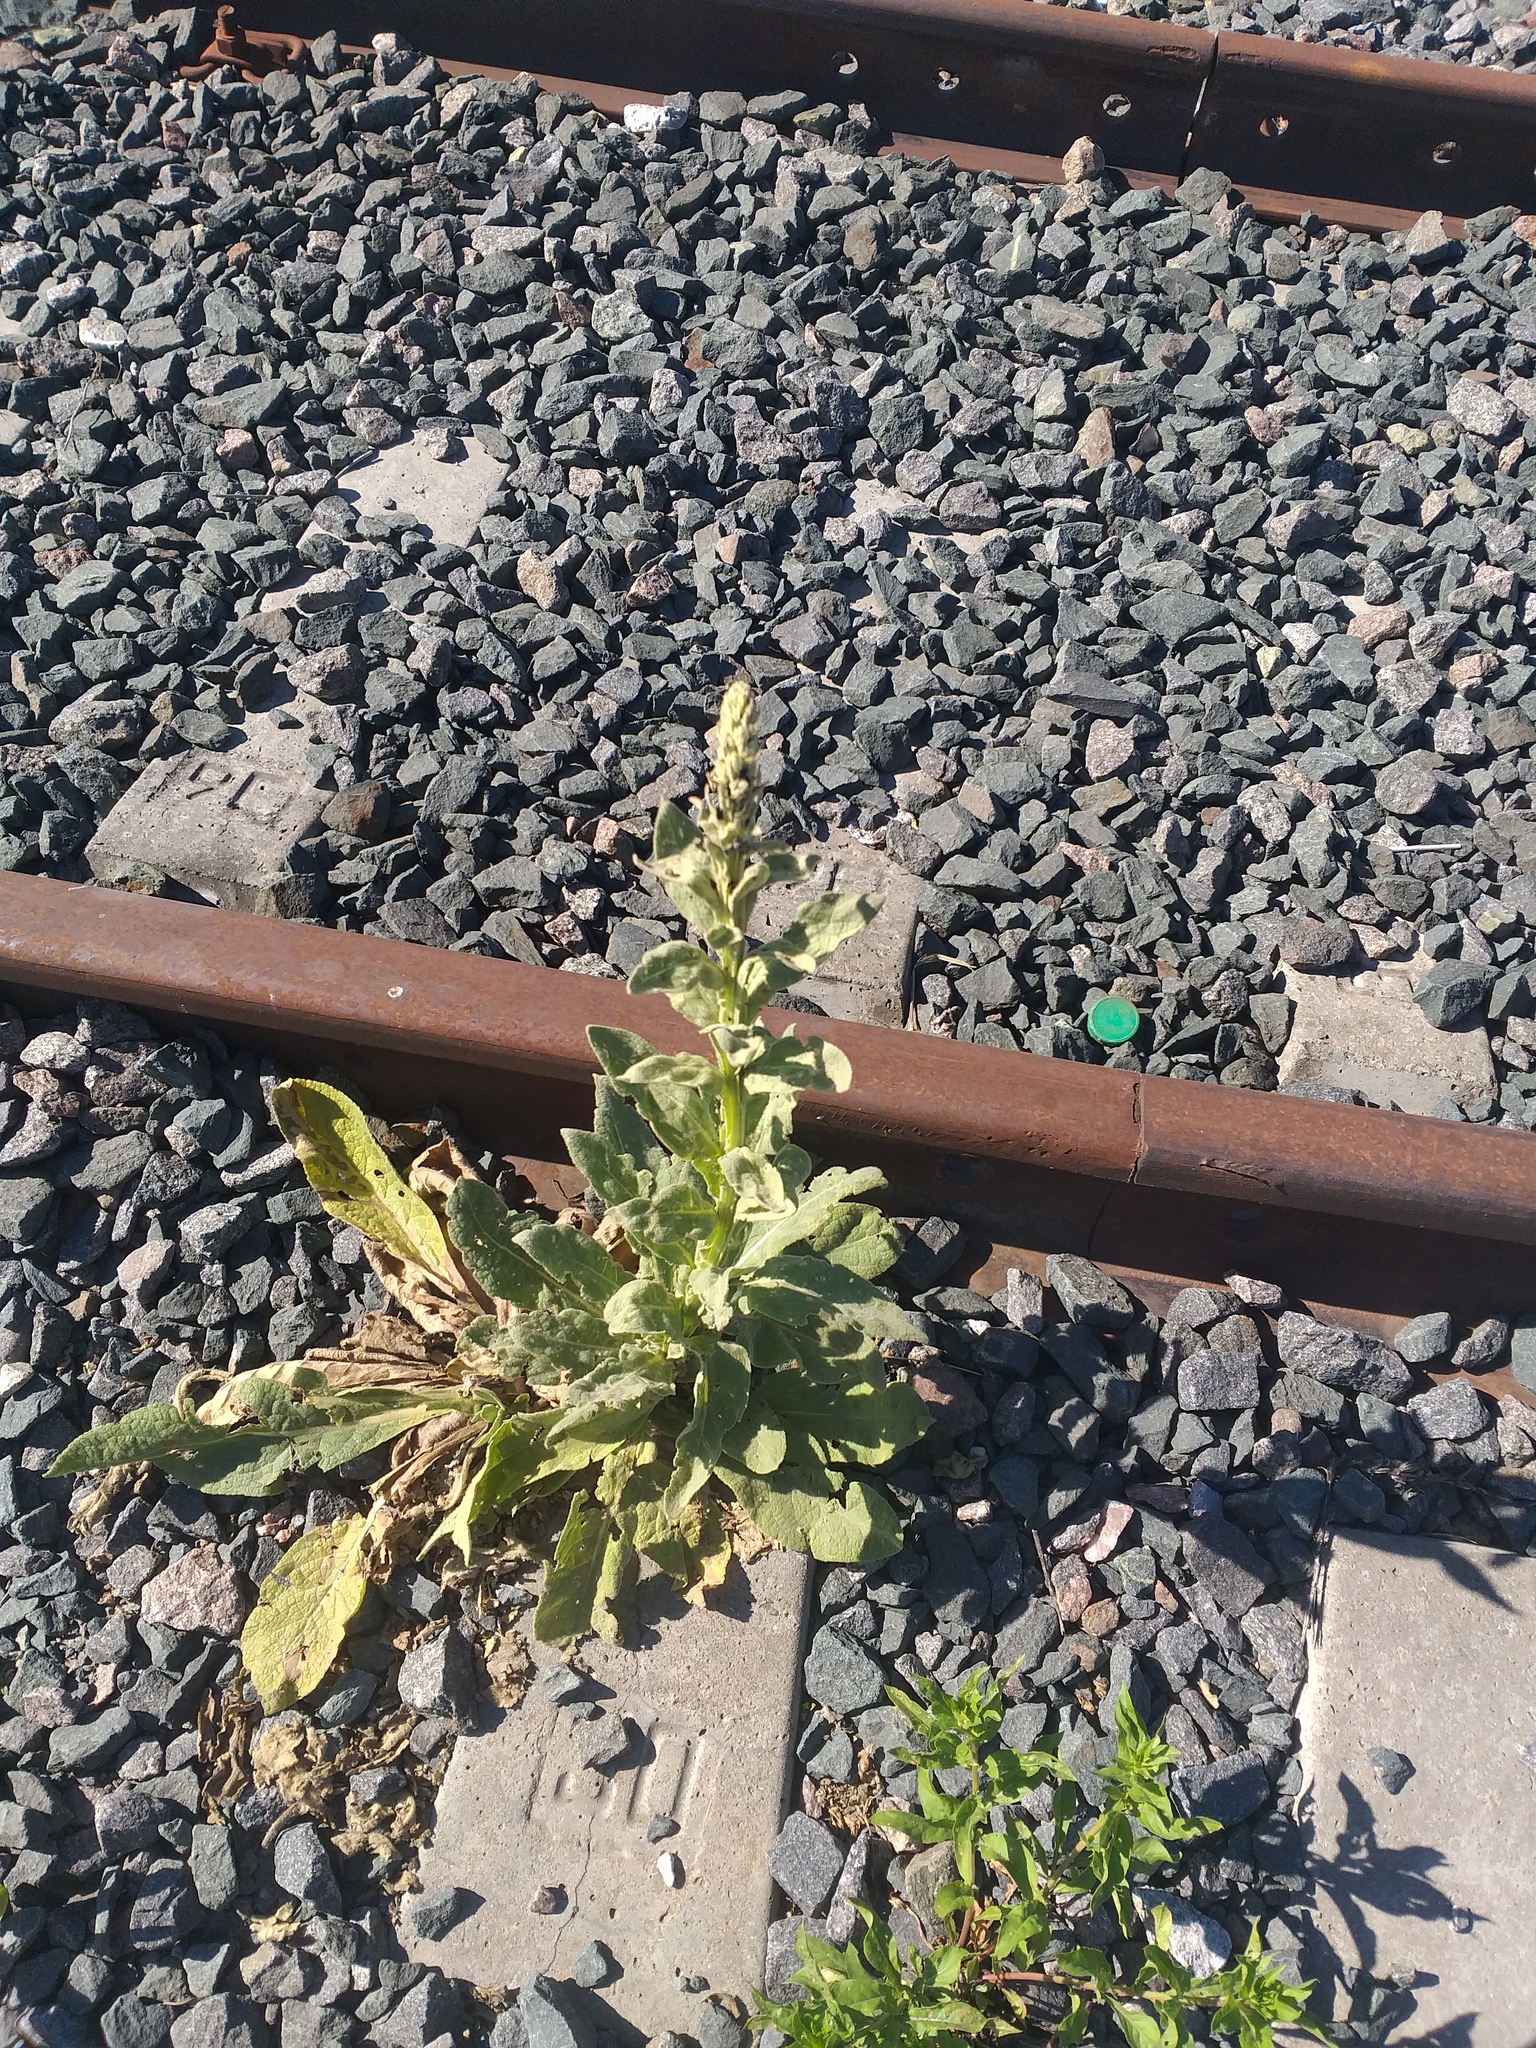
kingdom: Plantae
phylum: Tracheophyta
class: Magnoliopsida
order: Lamiales
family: Scrophulariaceae
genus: Verbascum
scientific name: Verbascum thapsus
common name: Common mullein
